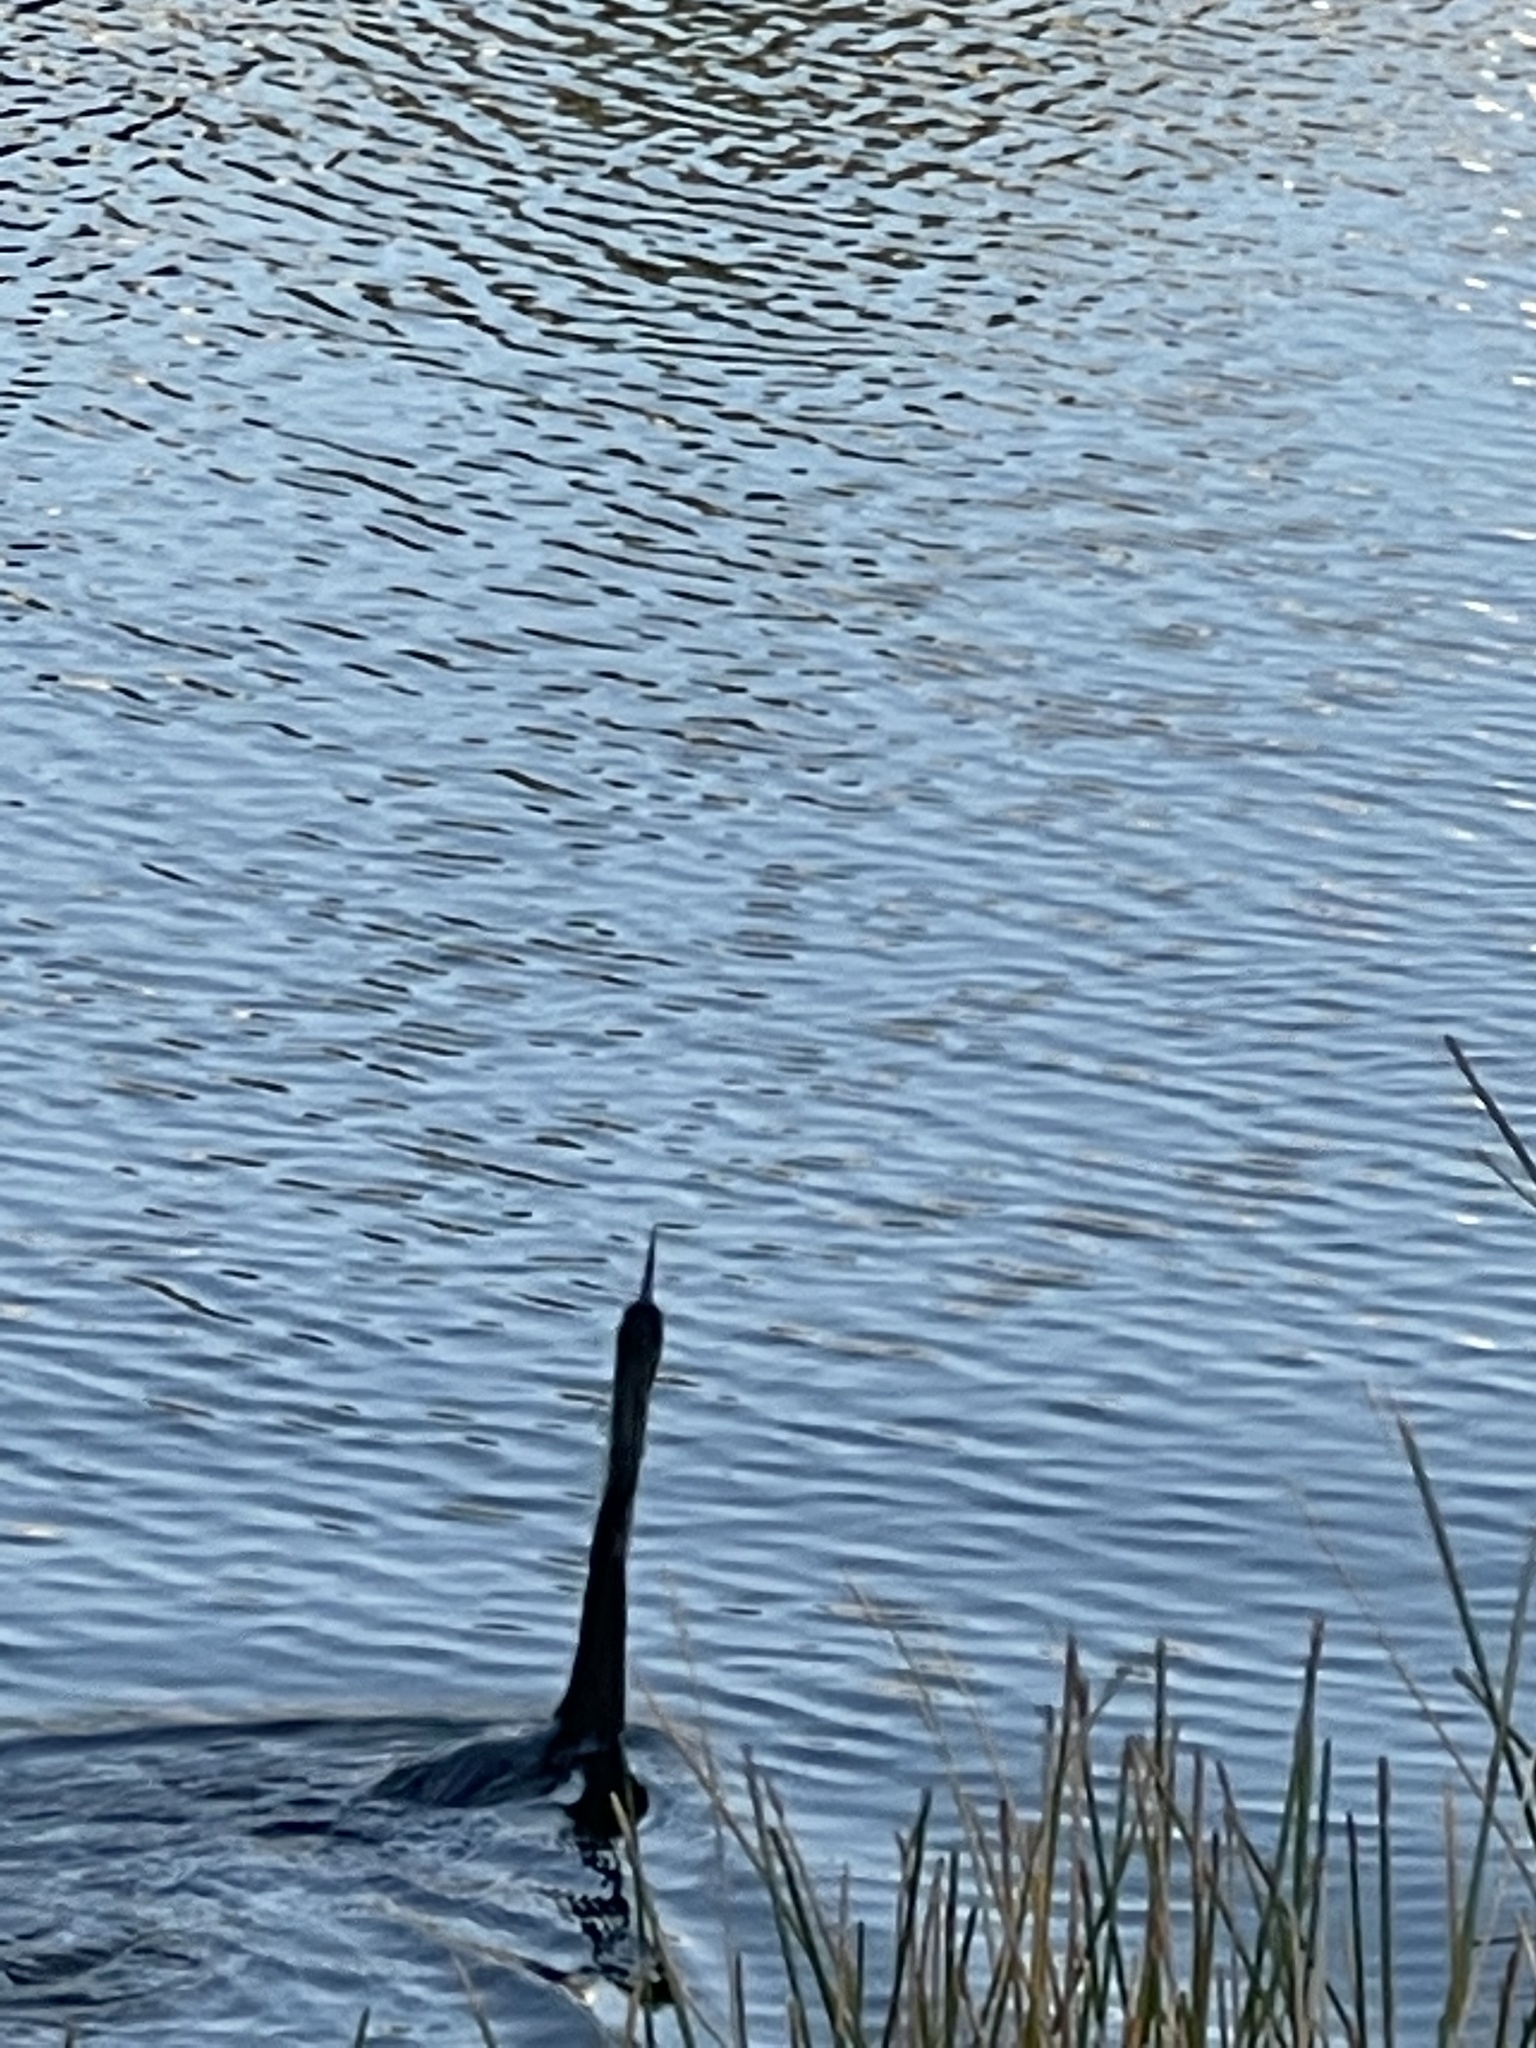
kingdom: Animalia
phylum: Chordata
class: Aves
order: Suliformes
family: Anhingidae
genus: Anhinga
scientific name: Anhinga anhinga
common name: Anhinga
